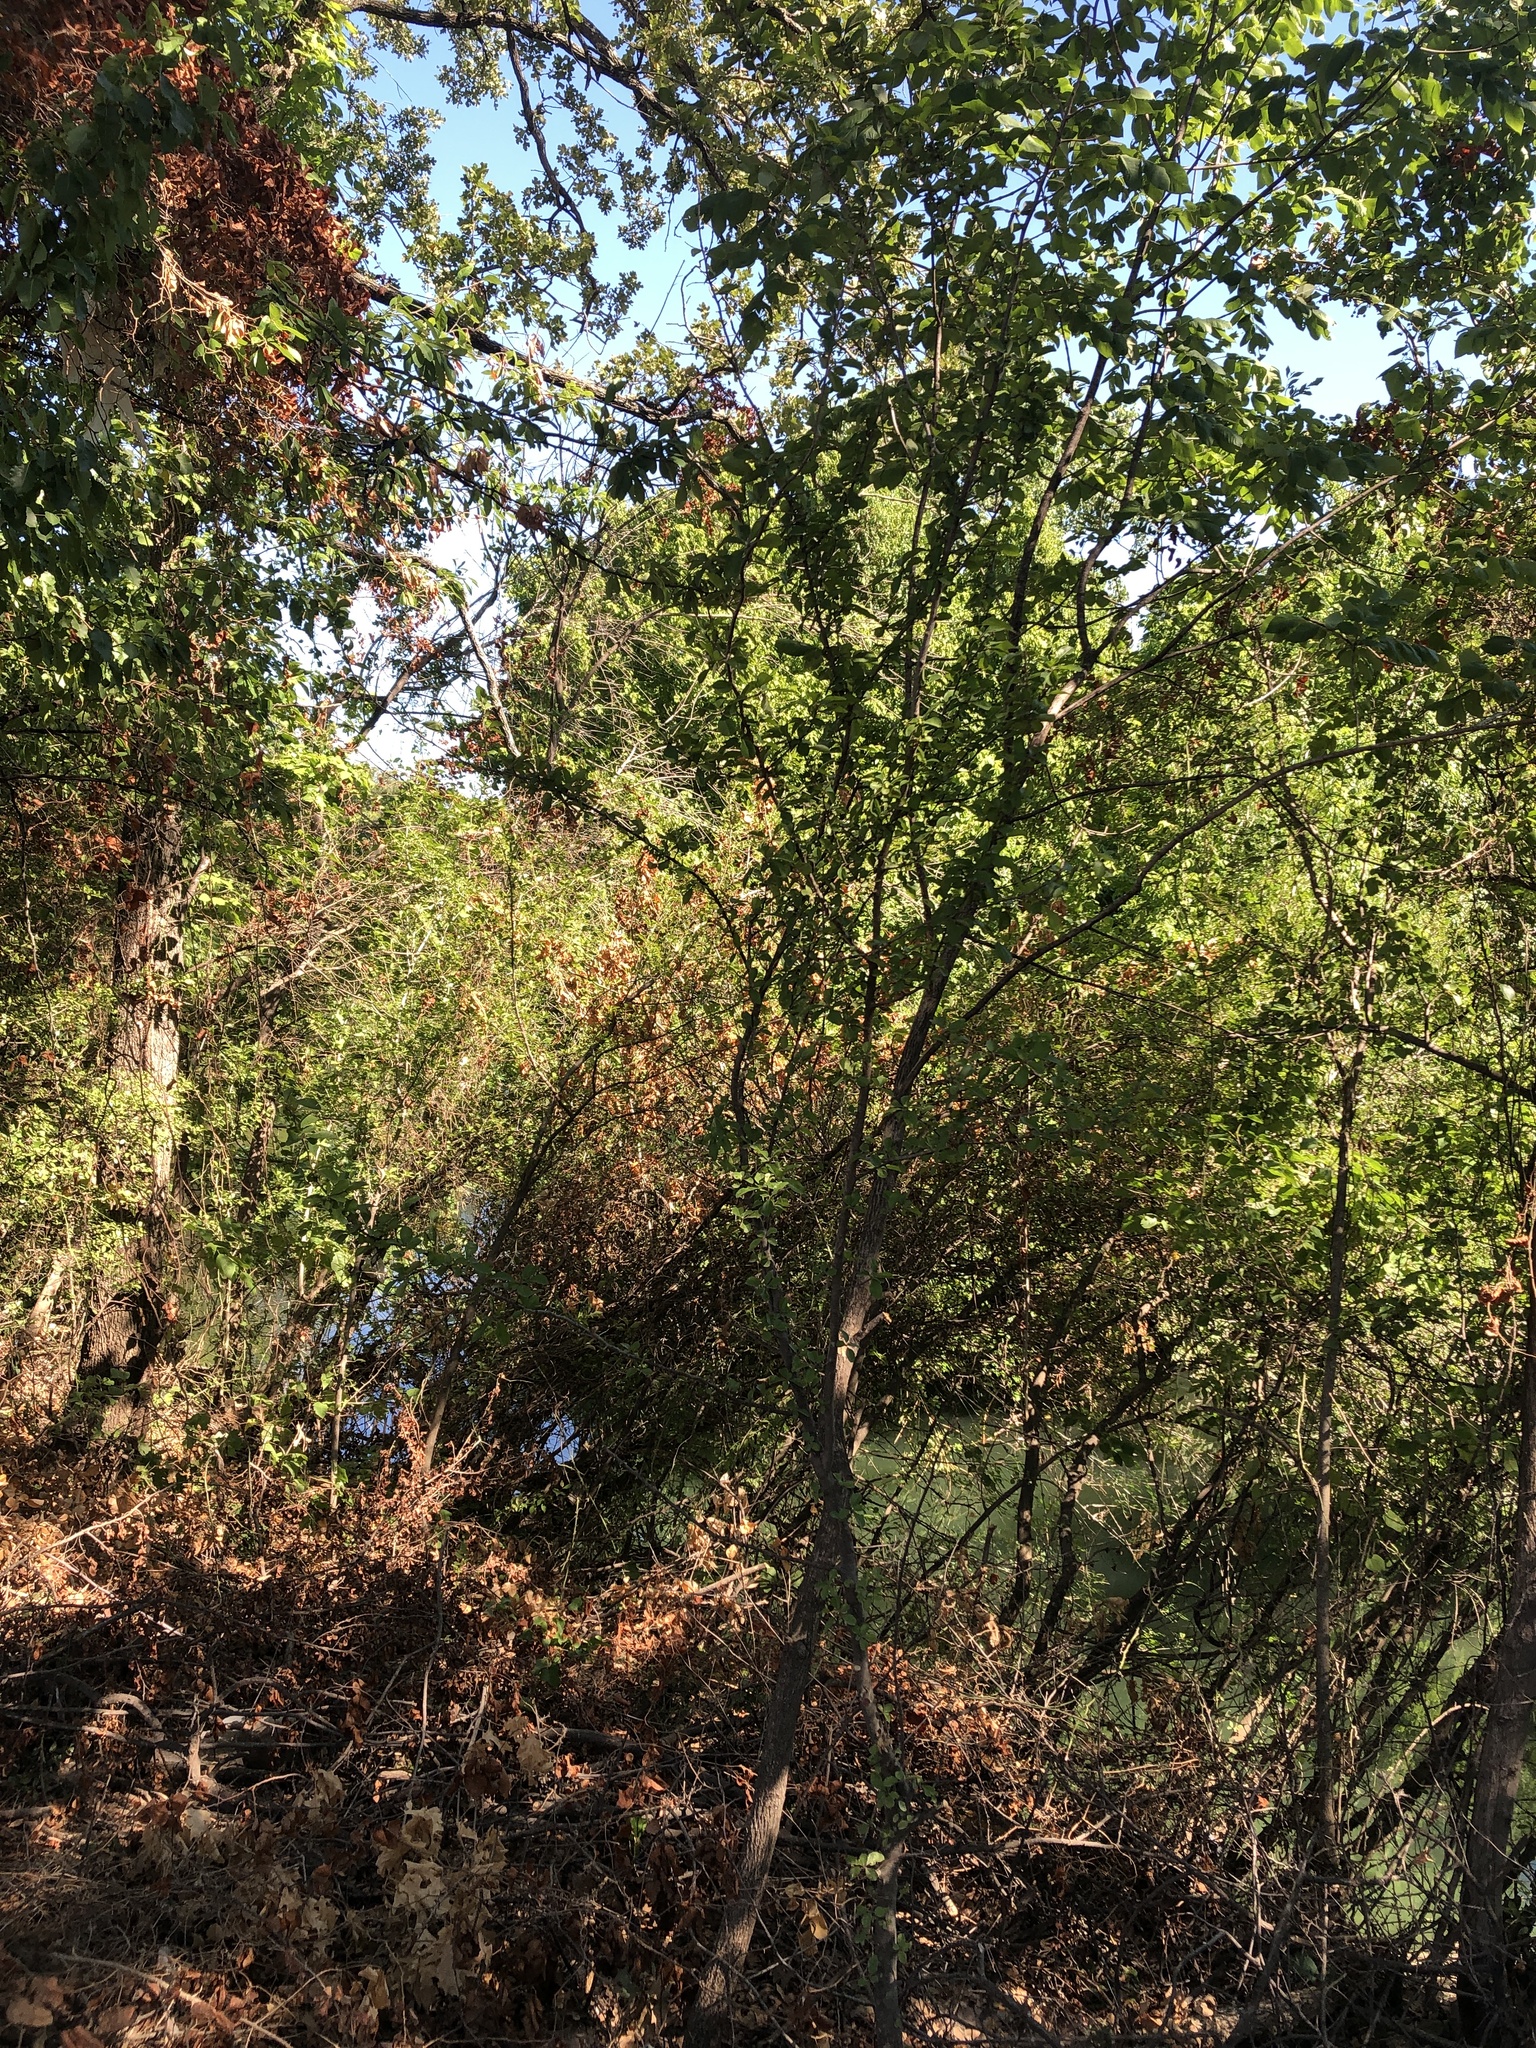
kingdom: Plantae
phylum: Tracheophyta
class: Magnoliopsida
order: Aquifoliales
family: Aquifoliaceae
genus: Ilex
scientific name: Ilex decidua
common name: Possum-haw
